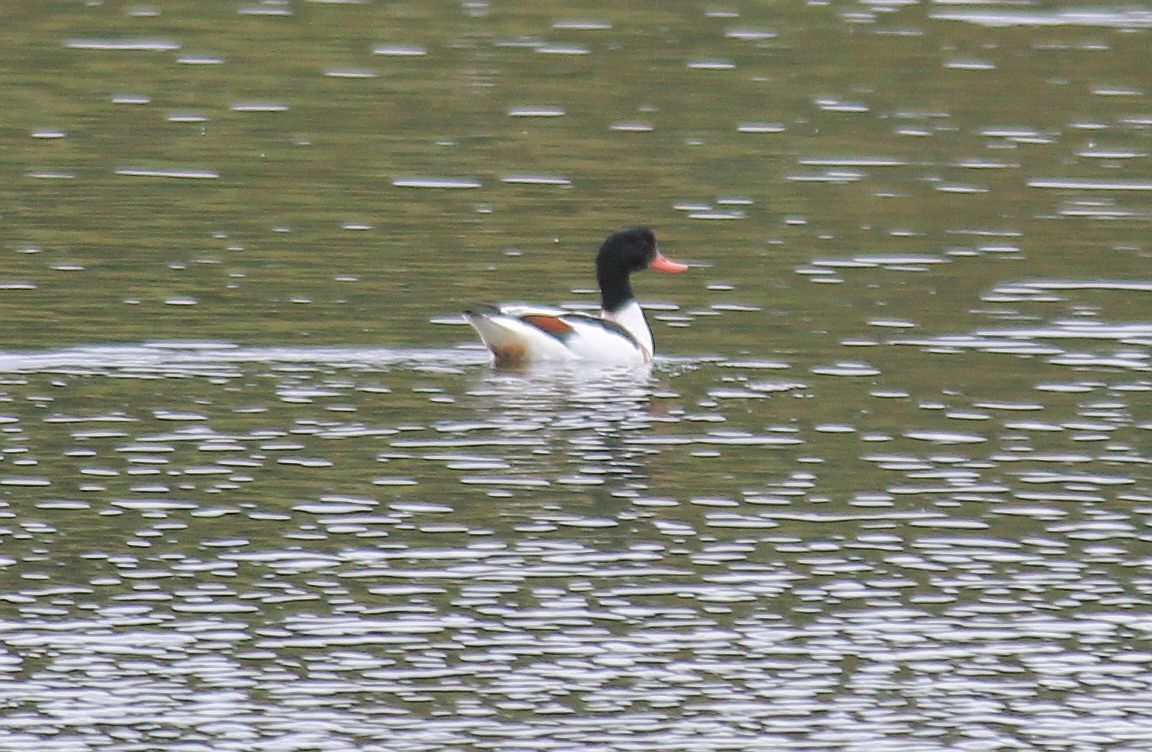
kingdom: Animalia
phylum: Chordata
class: Aves
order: Anseriformes
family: Anatidae
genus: Tadorna
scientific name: Tadorna tadorna
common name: Common shelduck
